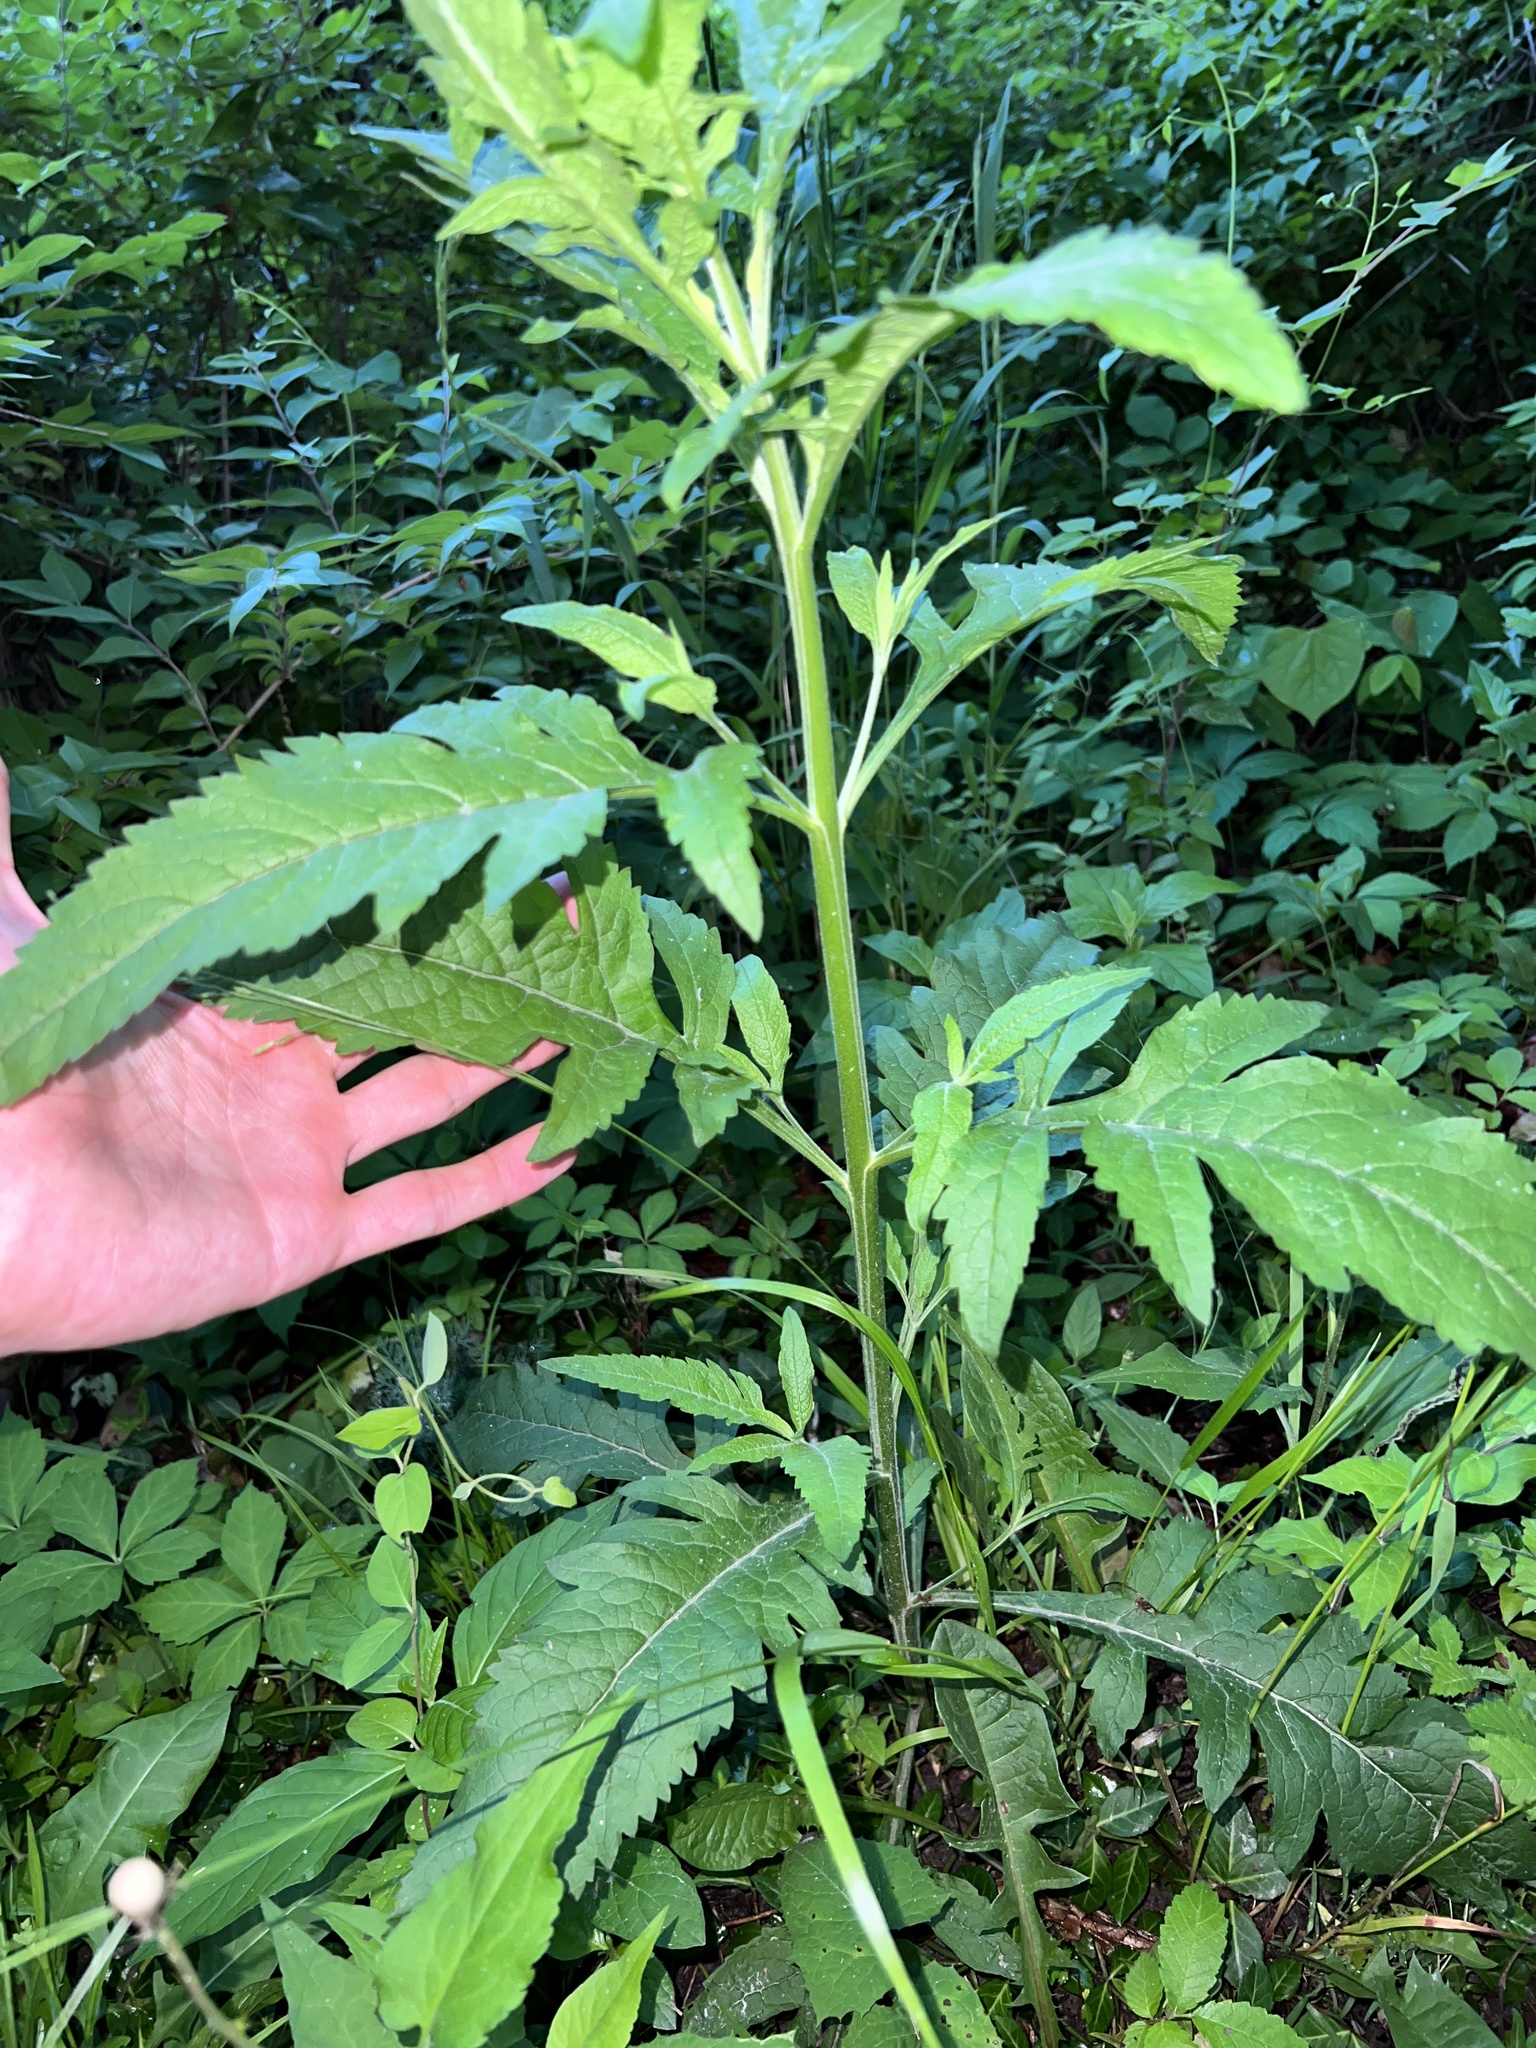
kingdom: Plantae
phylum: Tracheophyta
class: Magnoliopsida
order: Lamiales
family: Orobanchaceae
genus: Dasistoma
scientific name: Dasistoma macrophyllum
